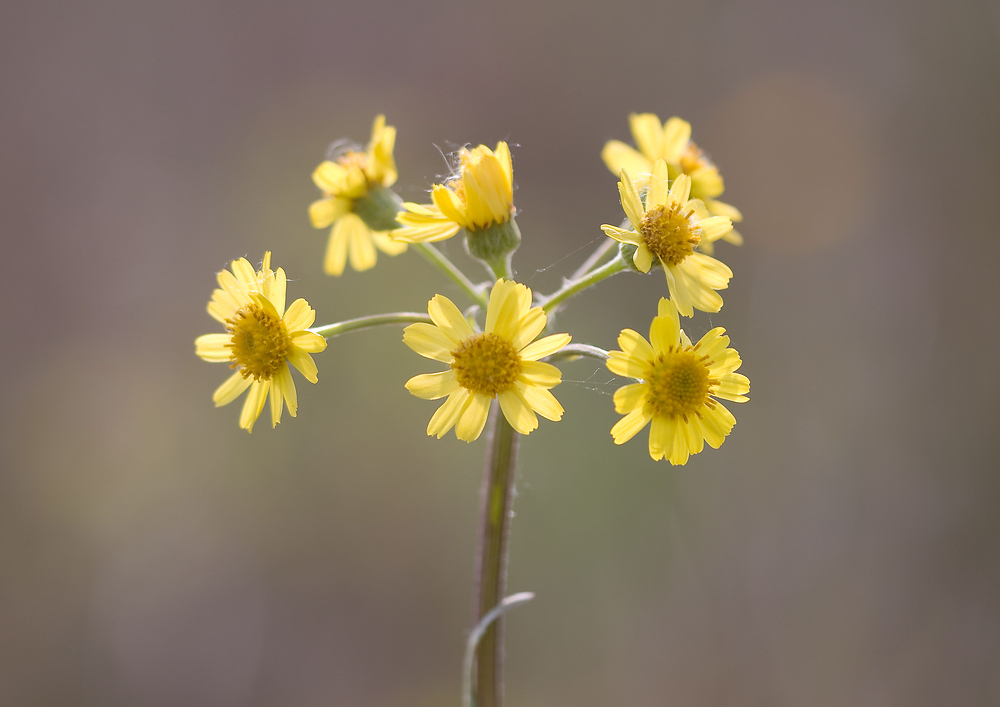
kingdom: Plantae
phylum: Tracheophyta
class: Magnoliopsida
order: Asterales
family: Asteraceae
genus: Tephroseris
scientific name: Tephroseris helenitis
